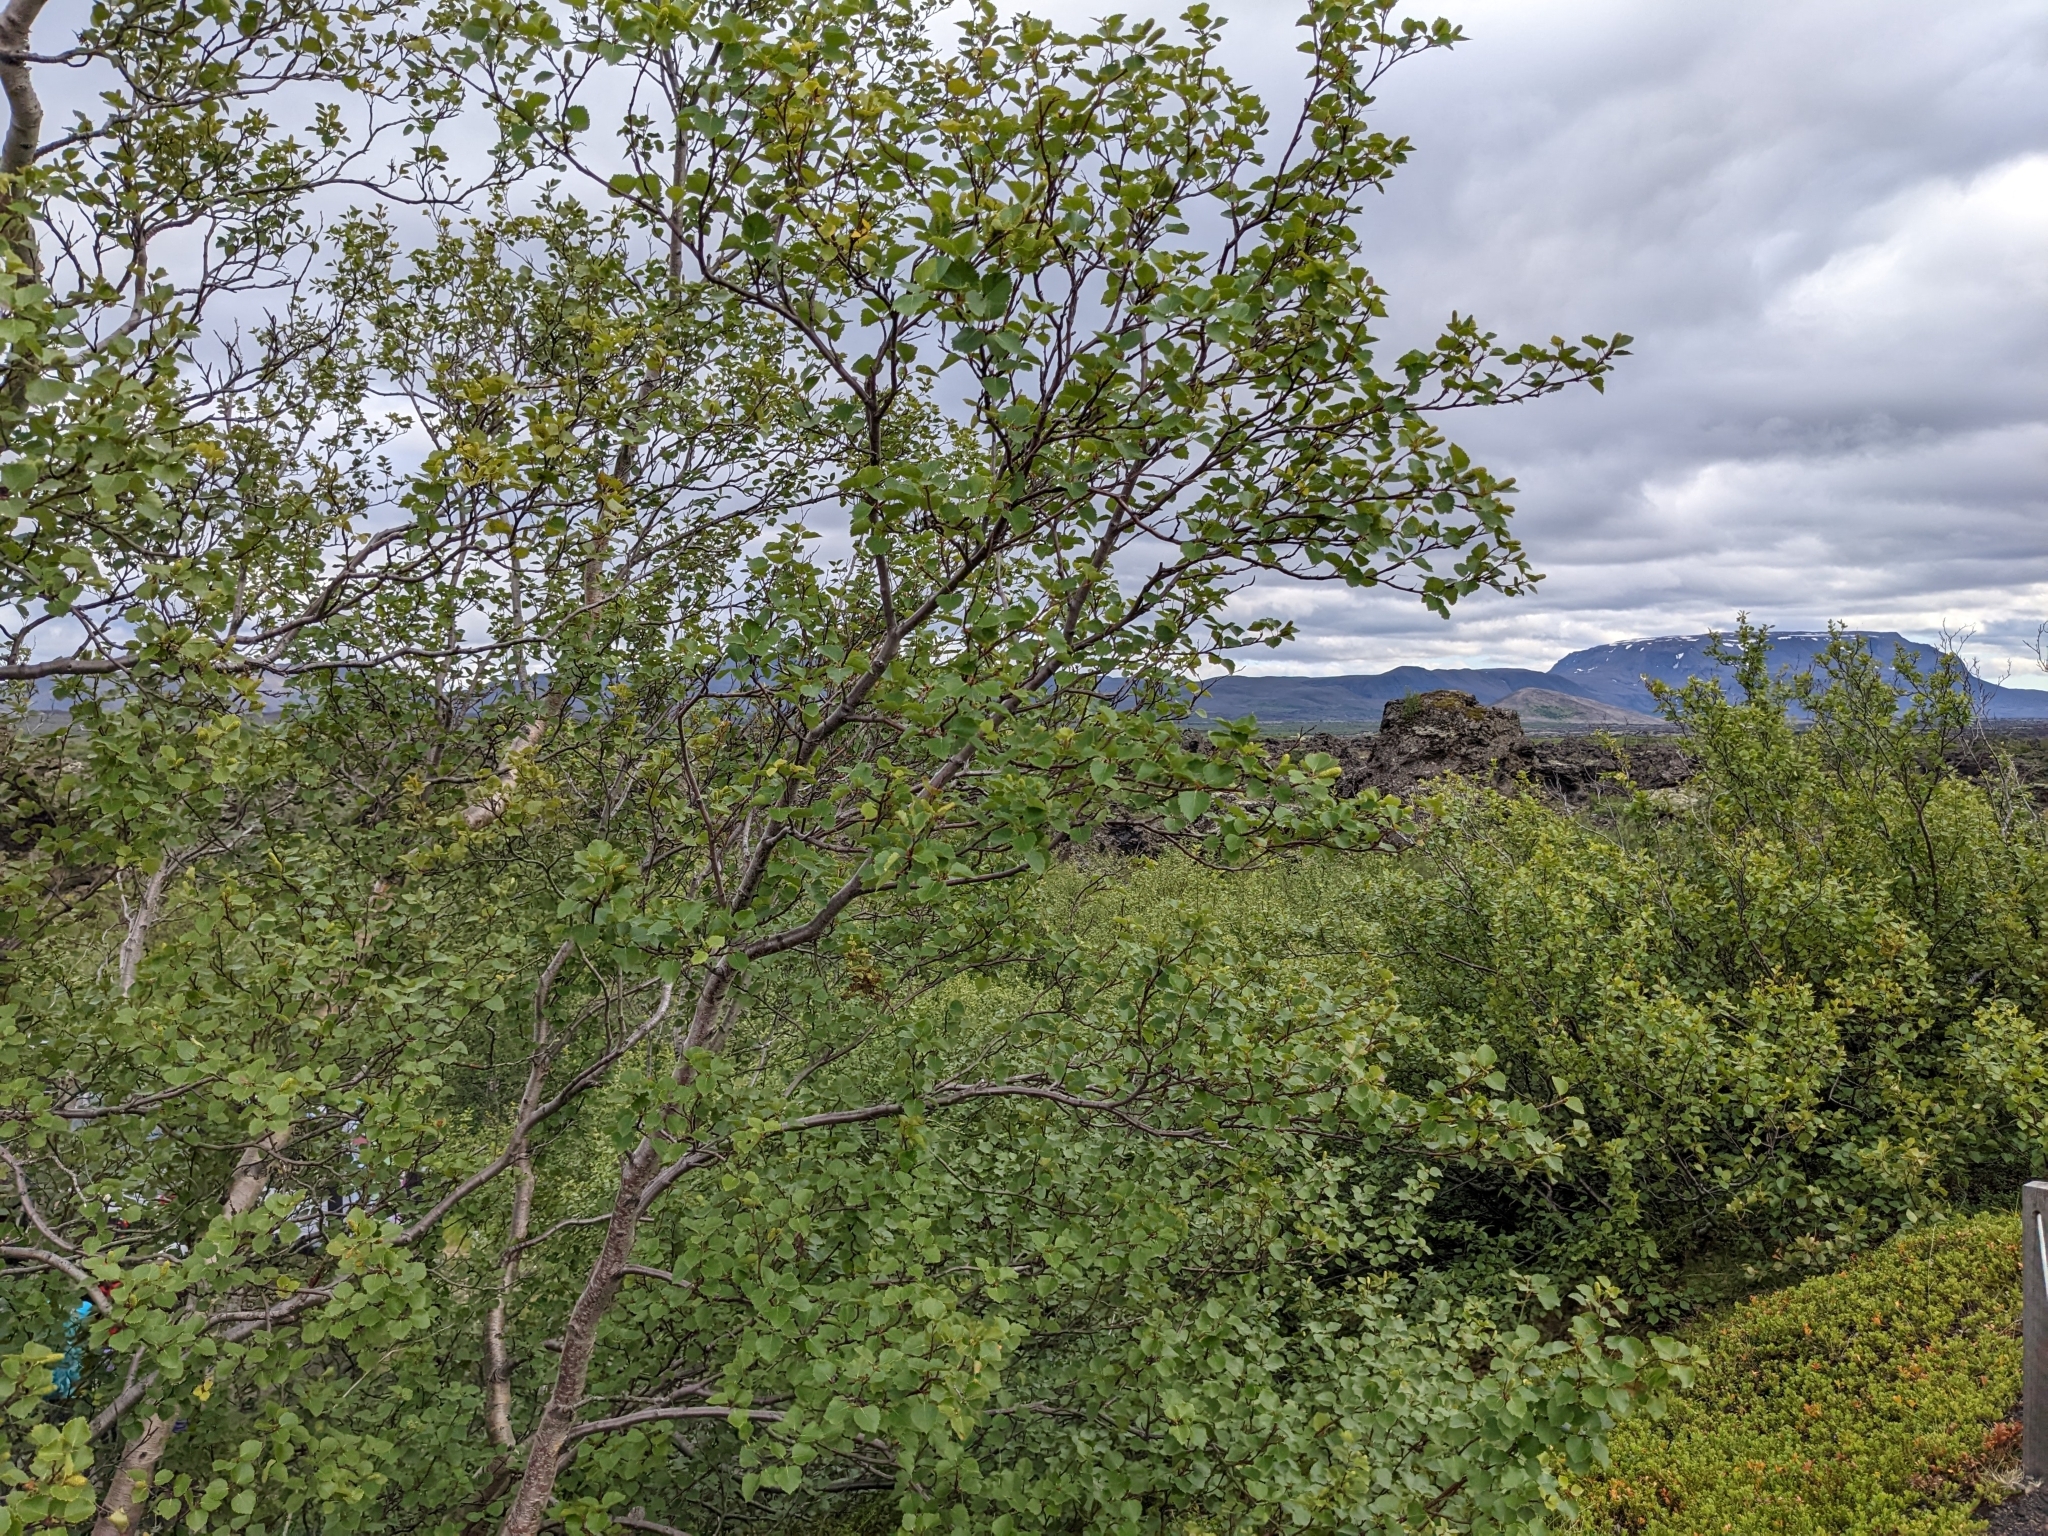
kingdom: Plantae
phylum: Tracheophyta
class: Magnoliopsida
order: Fagales
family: Betulaceae
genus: Betula
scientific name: Betula pubescens
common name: Downy birch
